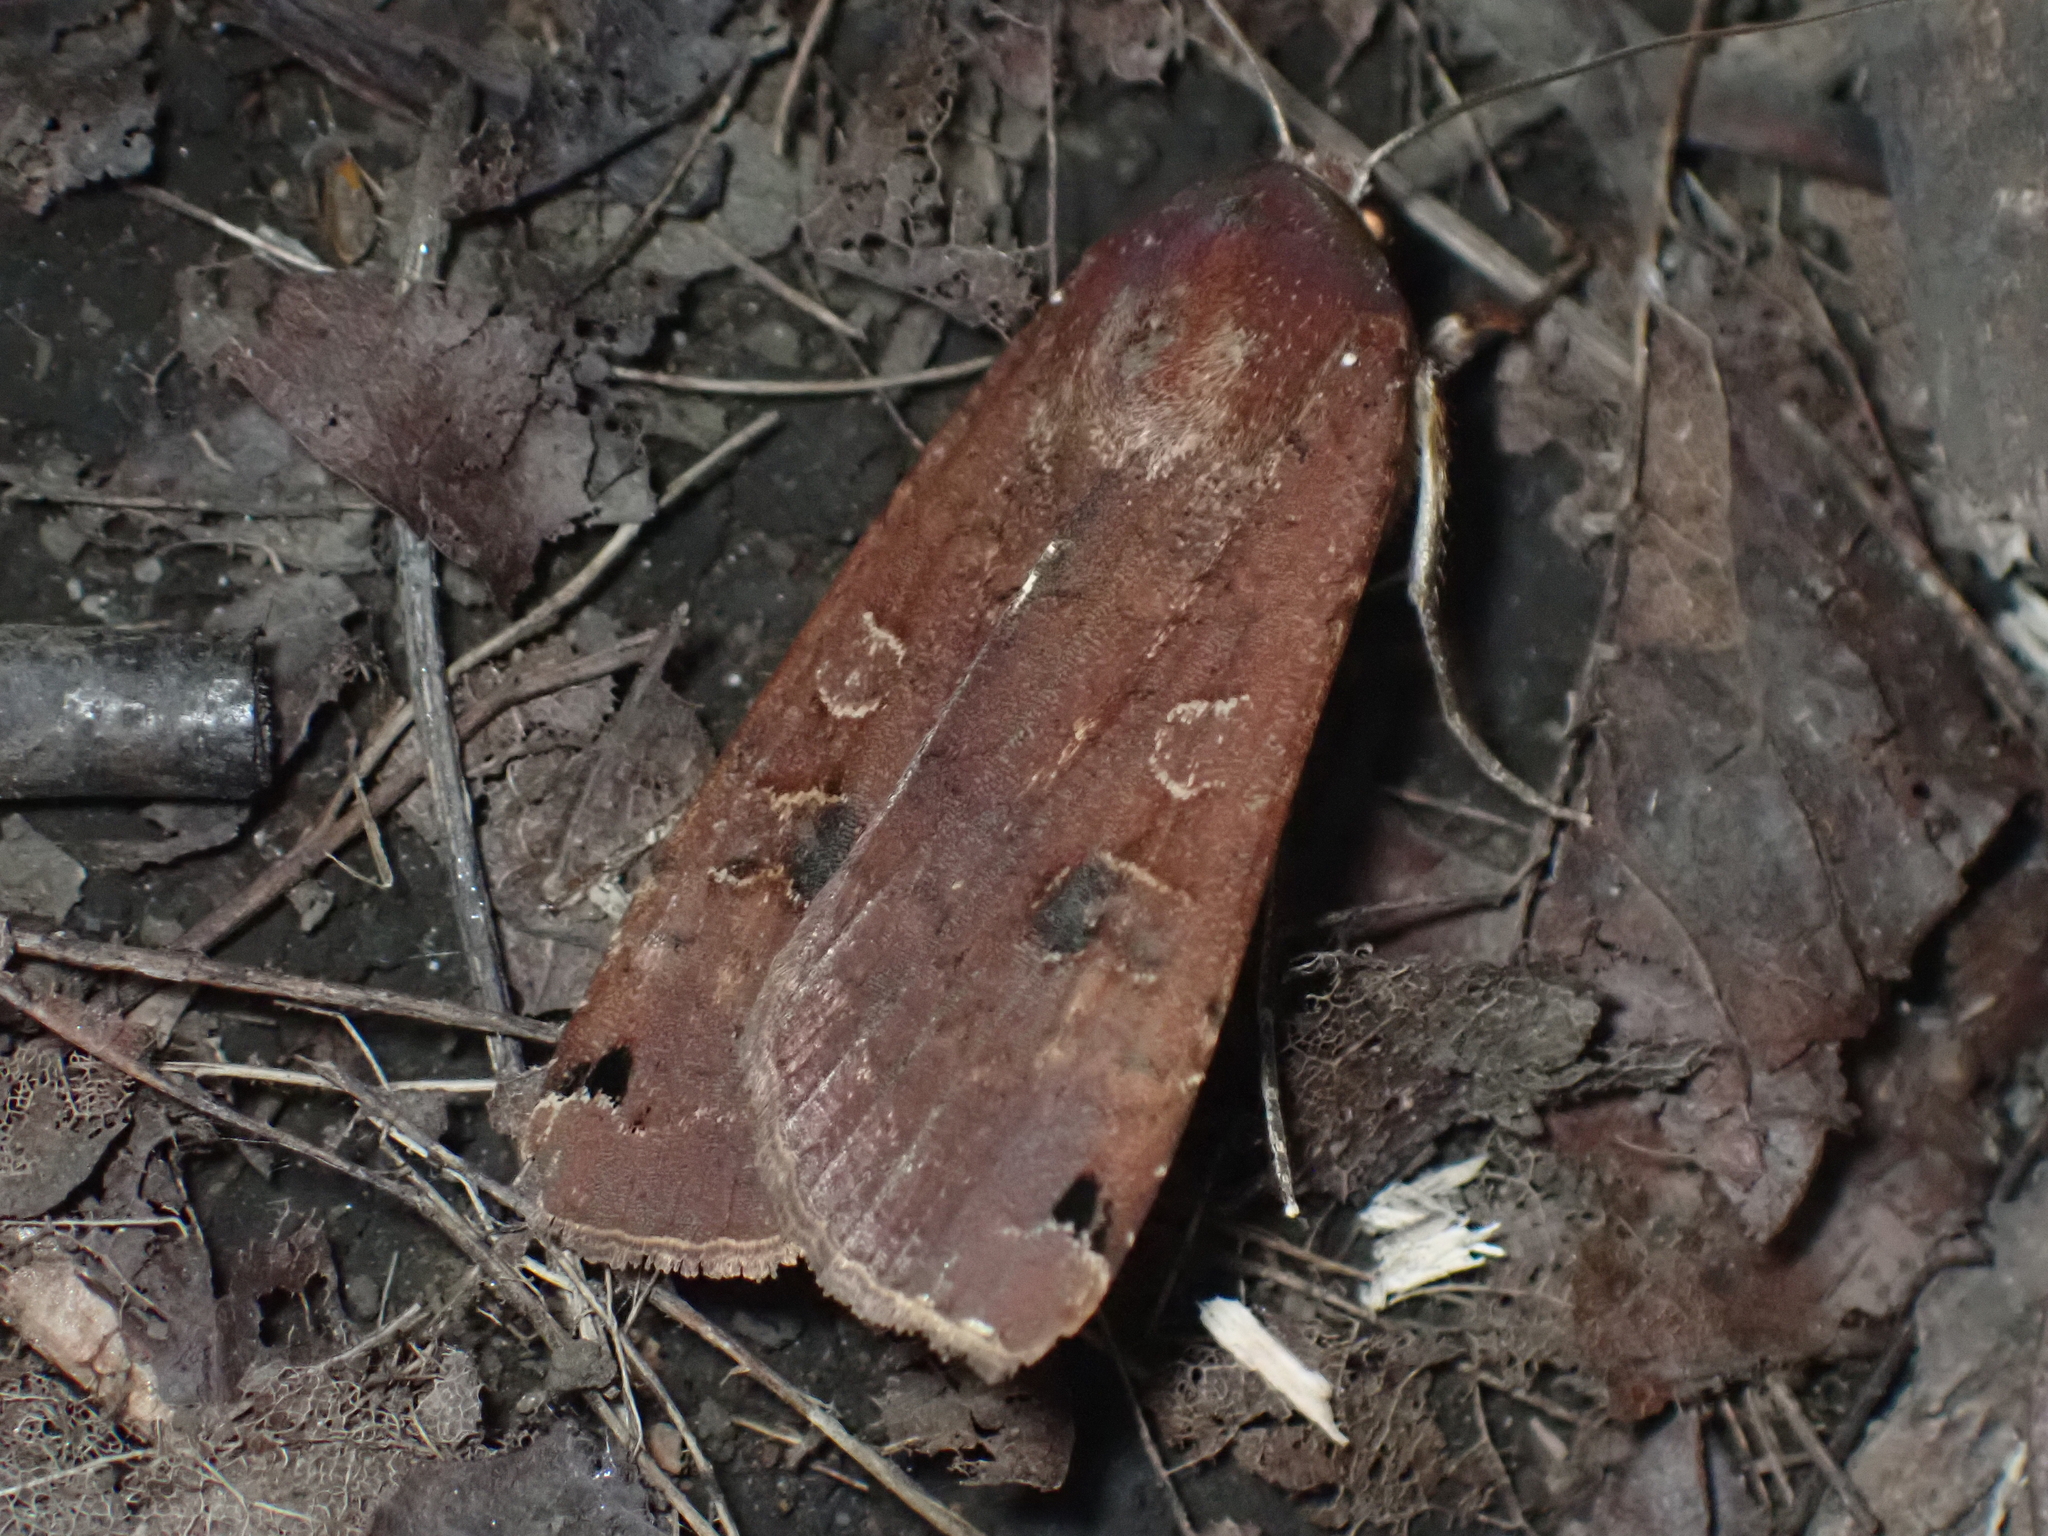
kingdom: Animalia
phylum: Arthropoda
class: Insecta
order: Lepidoptera
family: Noctuidae
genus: Noctua
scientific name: Noctua pronuba
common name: Large yellow underwing
